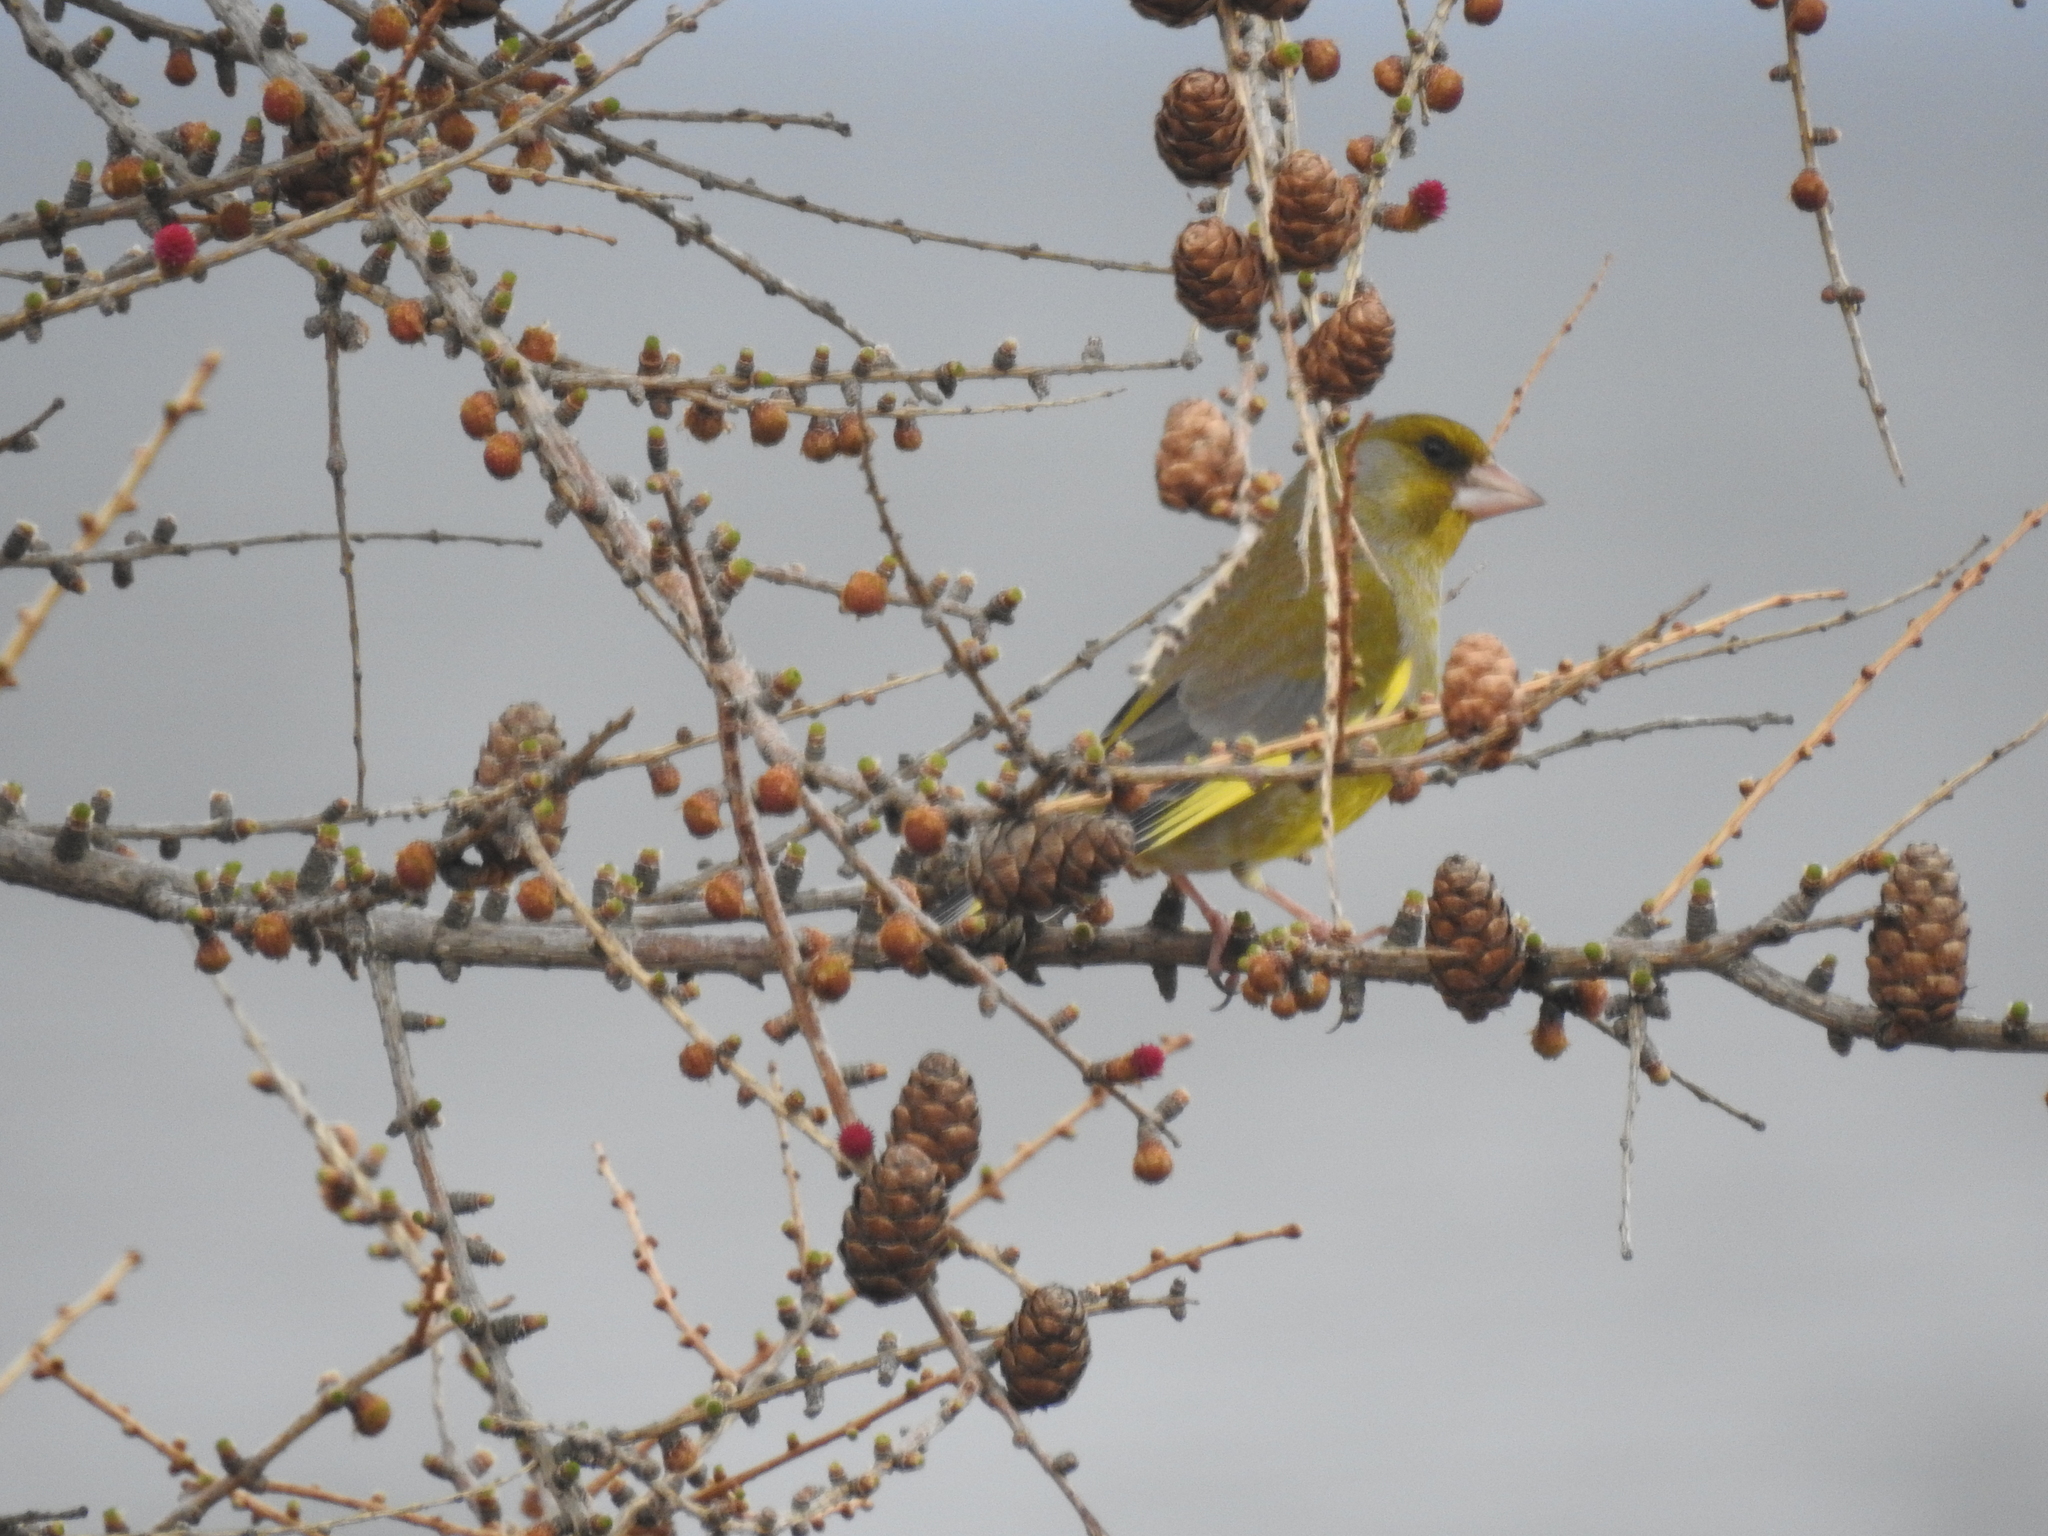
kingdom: Plantae
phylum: Tracheophyta
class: Liliopsida
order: Poales
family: Poaceae
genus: Chloris
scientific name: Chloris chloris
